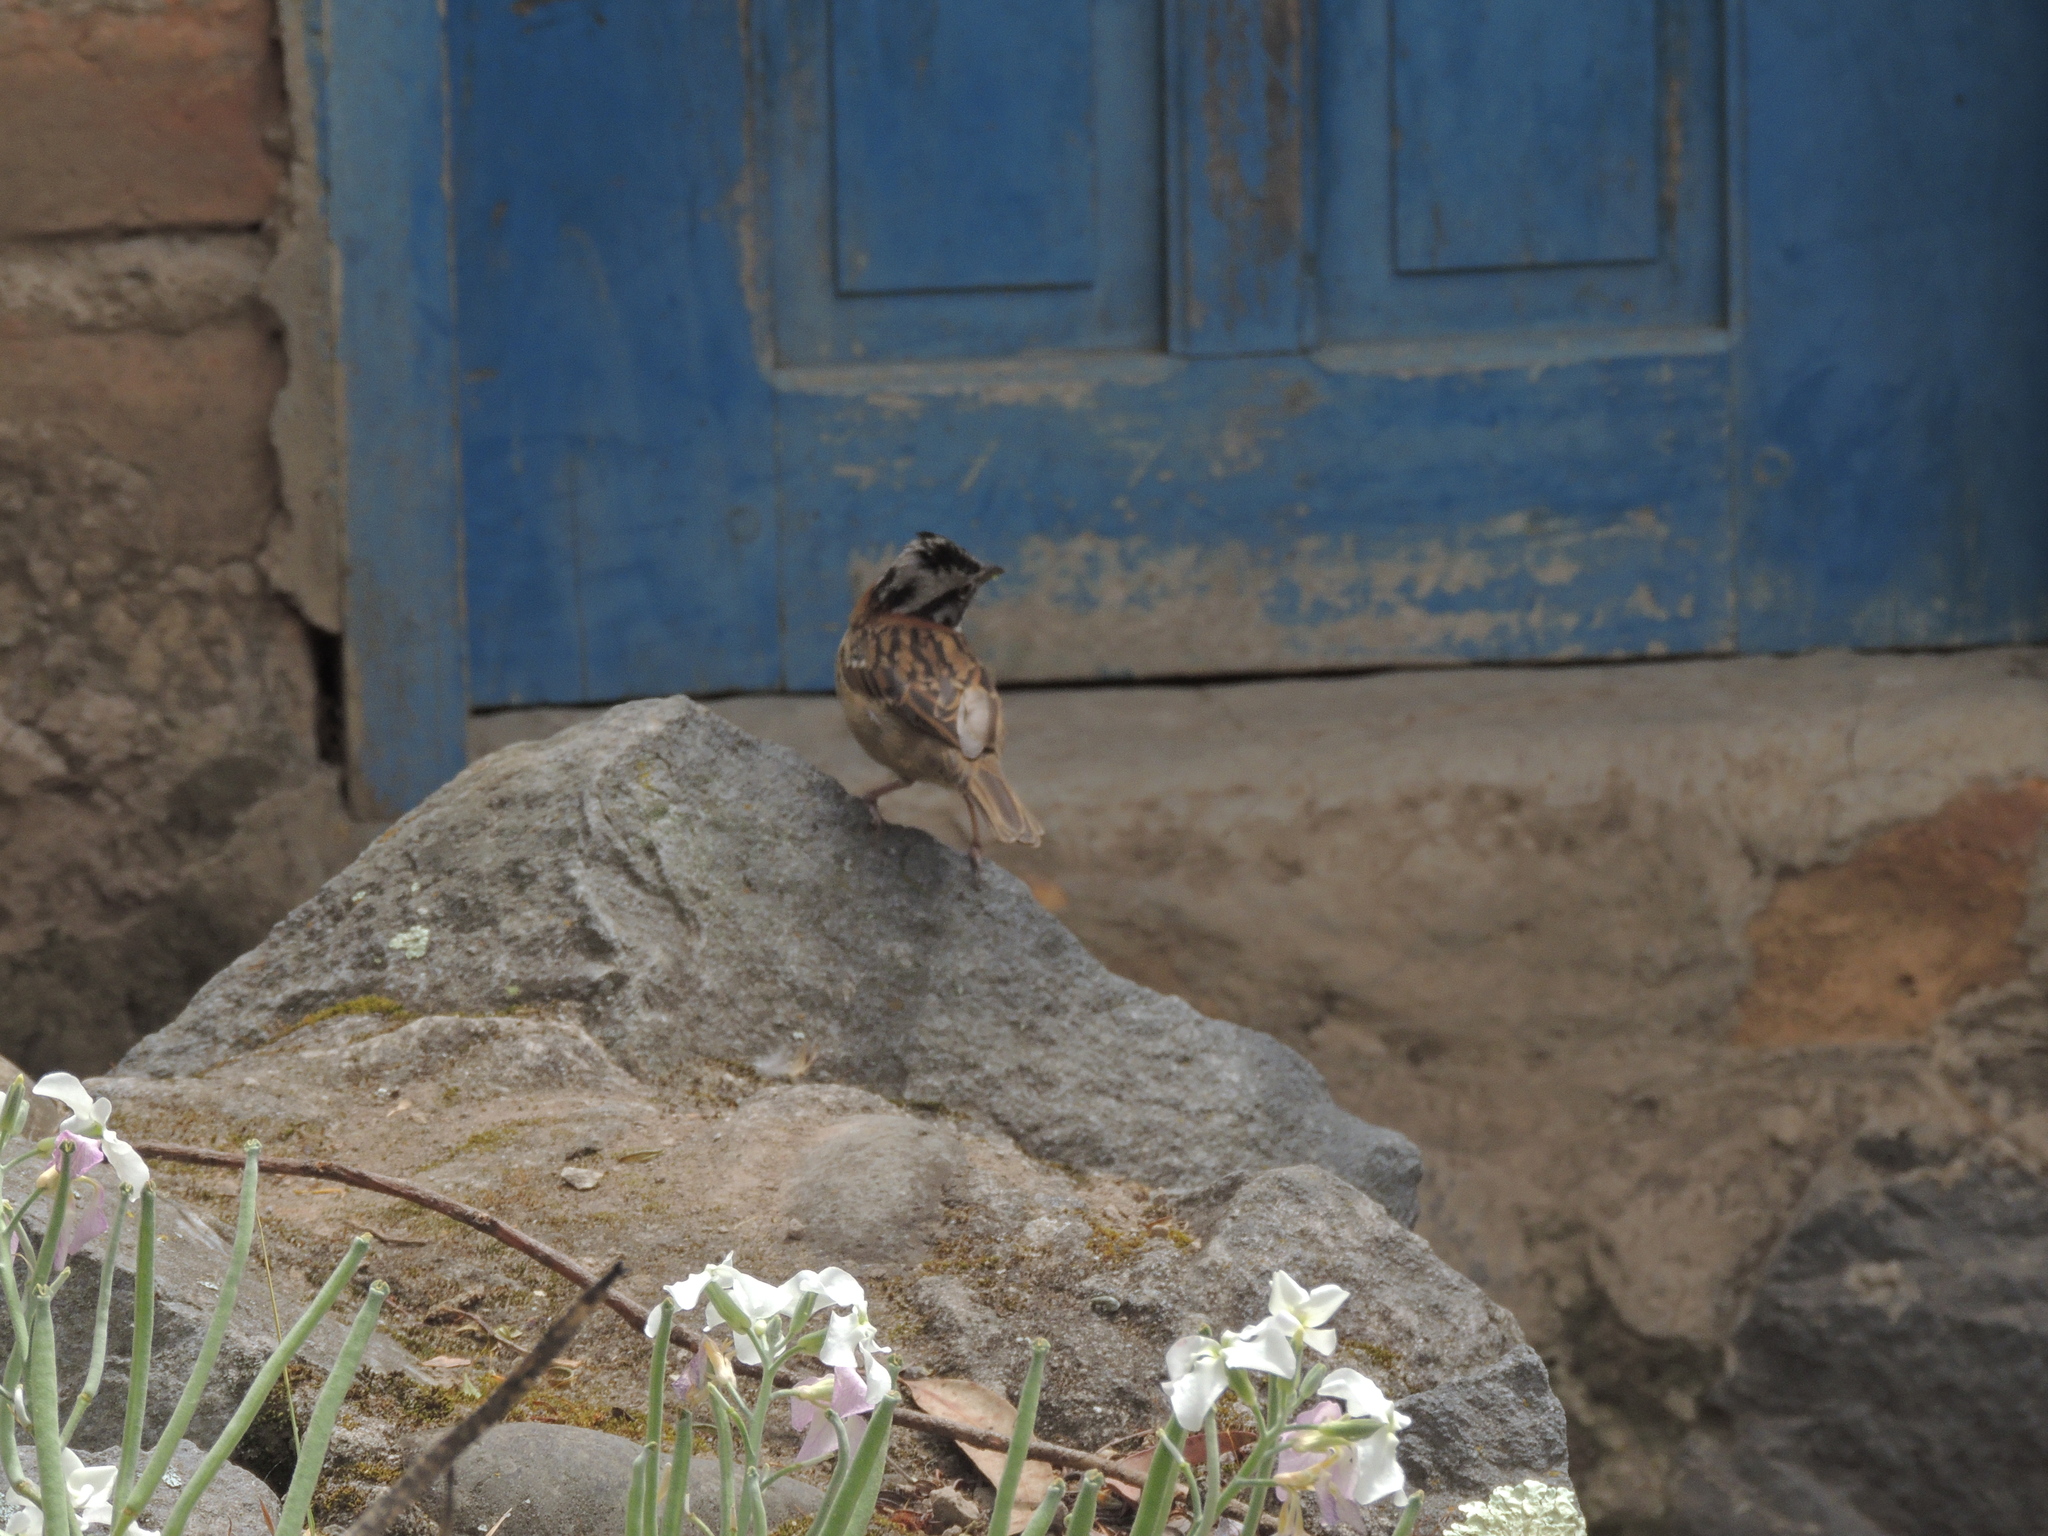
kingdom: Animalia
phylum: Chordata
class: Aves
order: Passeriformes
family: Passerellidae
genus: Zonotrichia
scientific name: Zonotrichia capensis
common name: Rufous-collared sparrow
